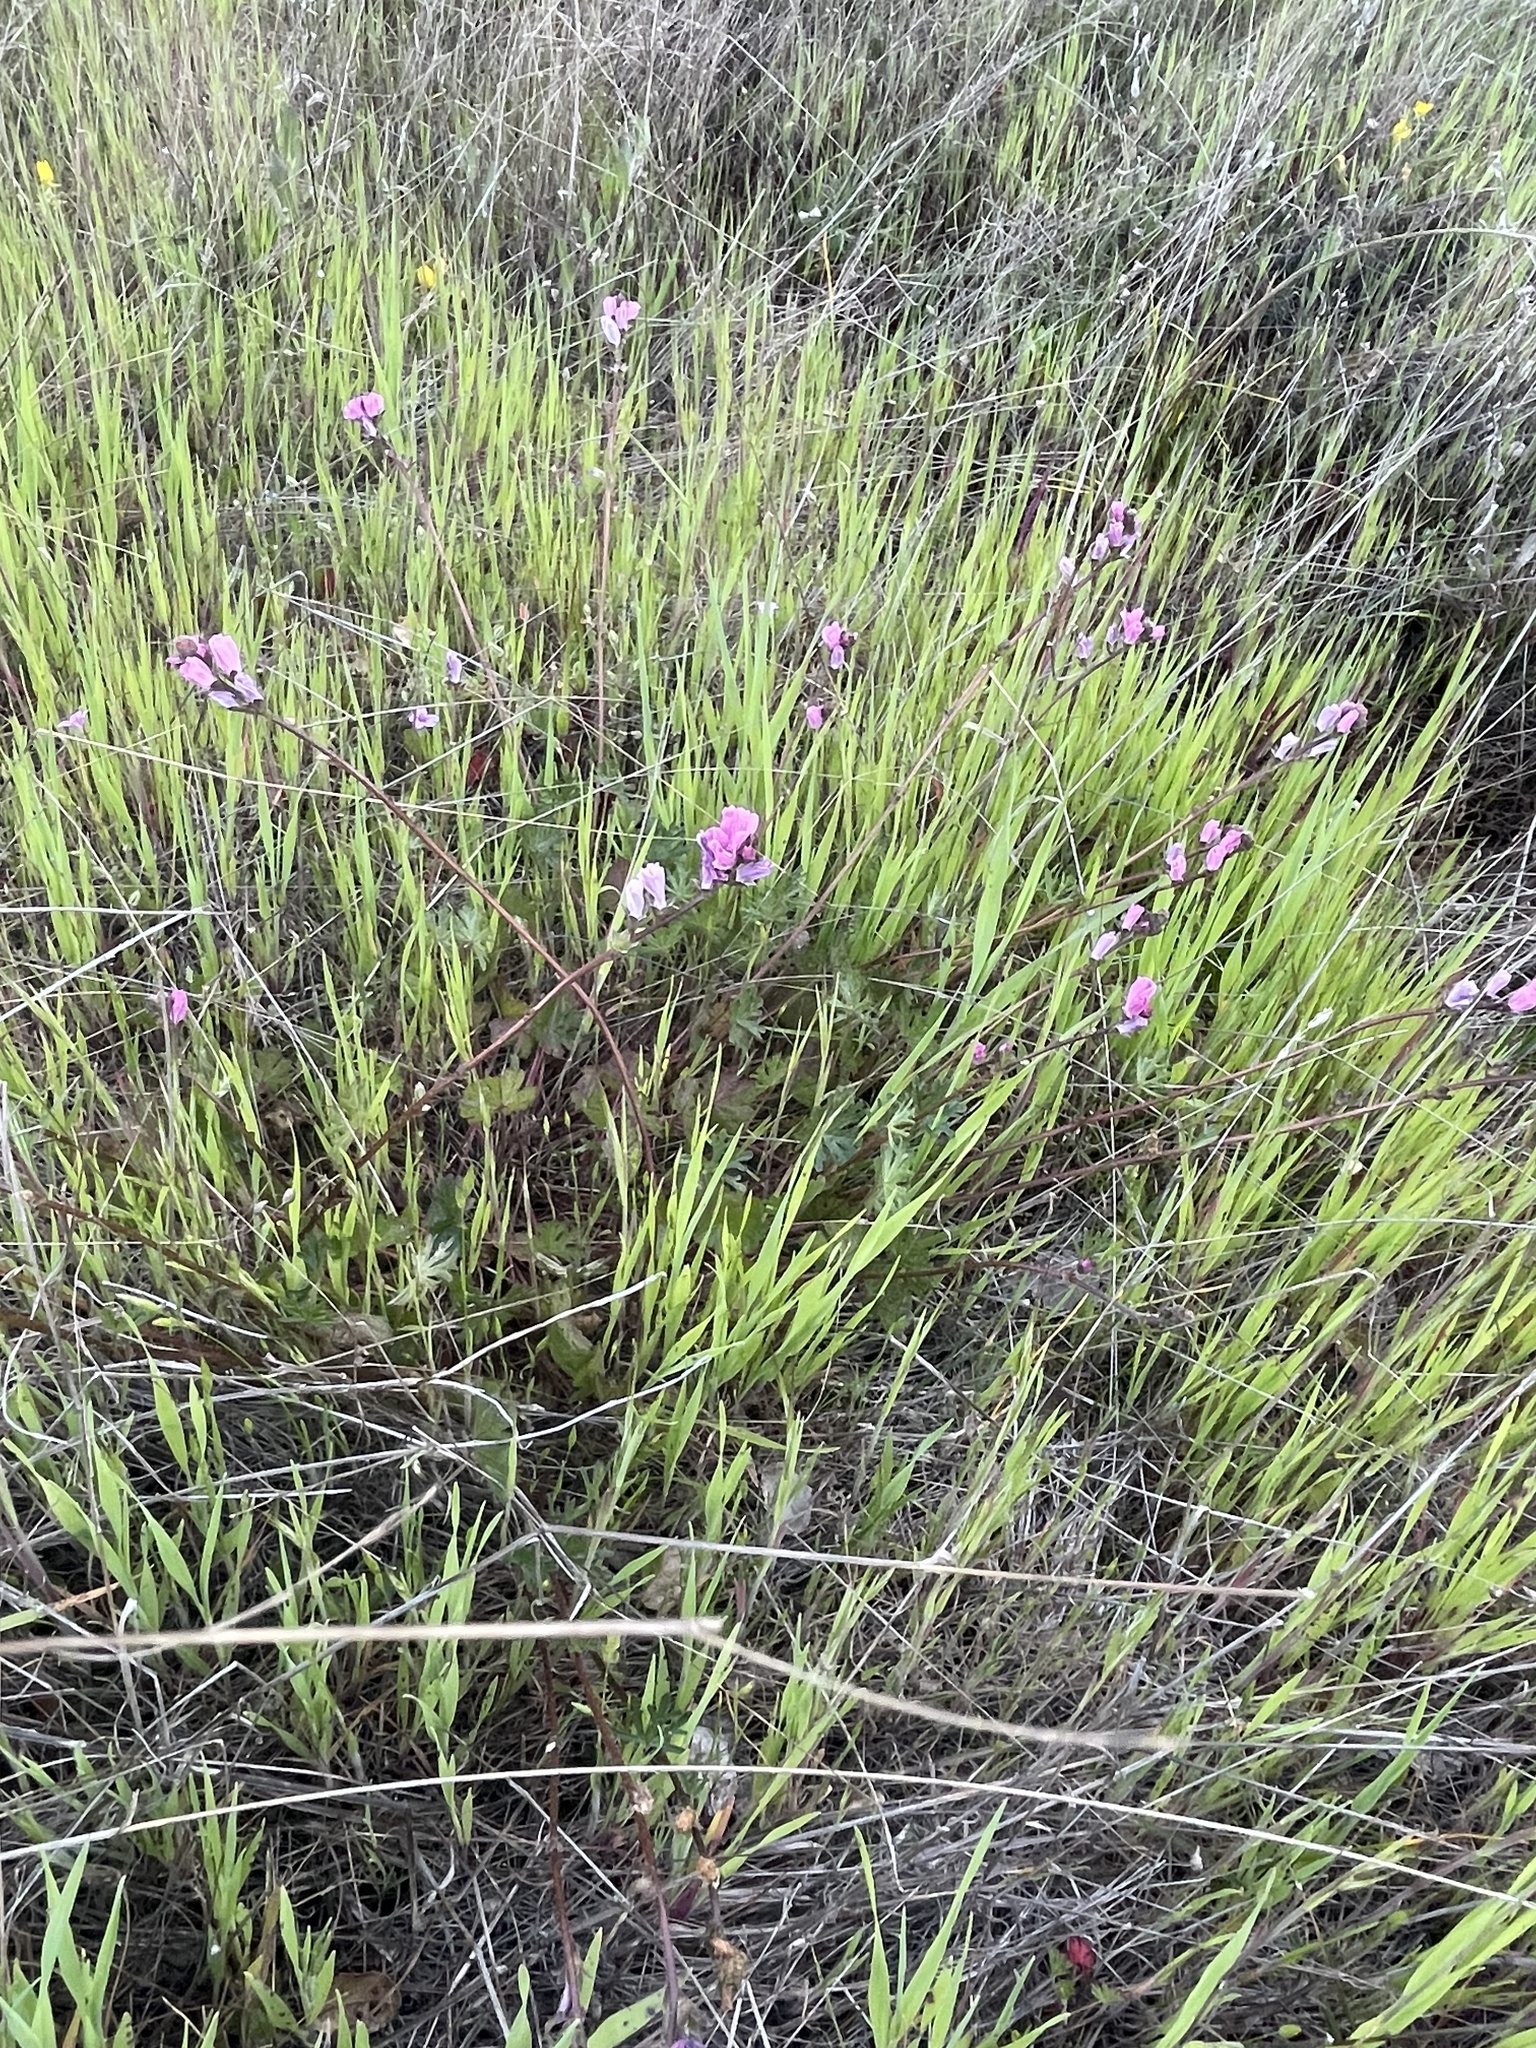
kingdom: Plantae
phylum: Tracheophyta
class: Magnoliopsida
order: Malvales
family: Malvaceae
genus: Sidalcea
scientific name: Sidalcea malviflora
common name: Greek mallow
